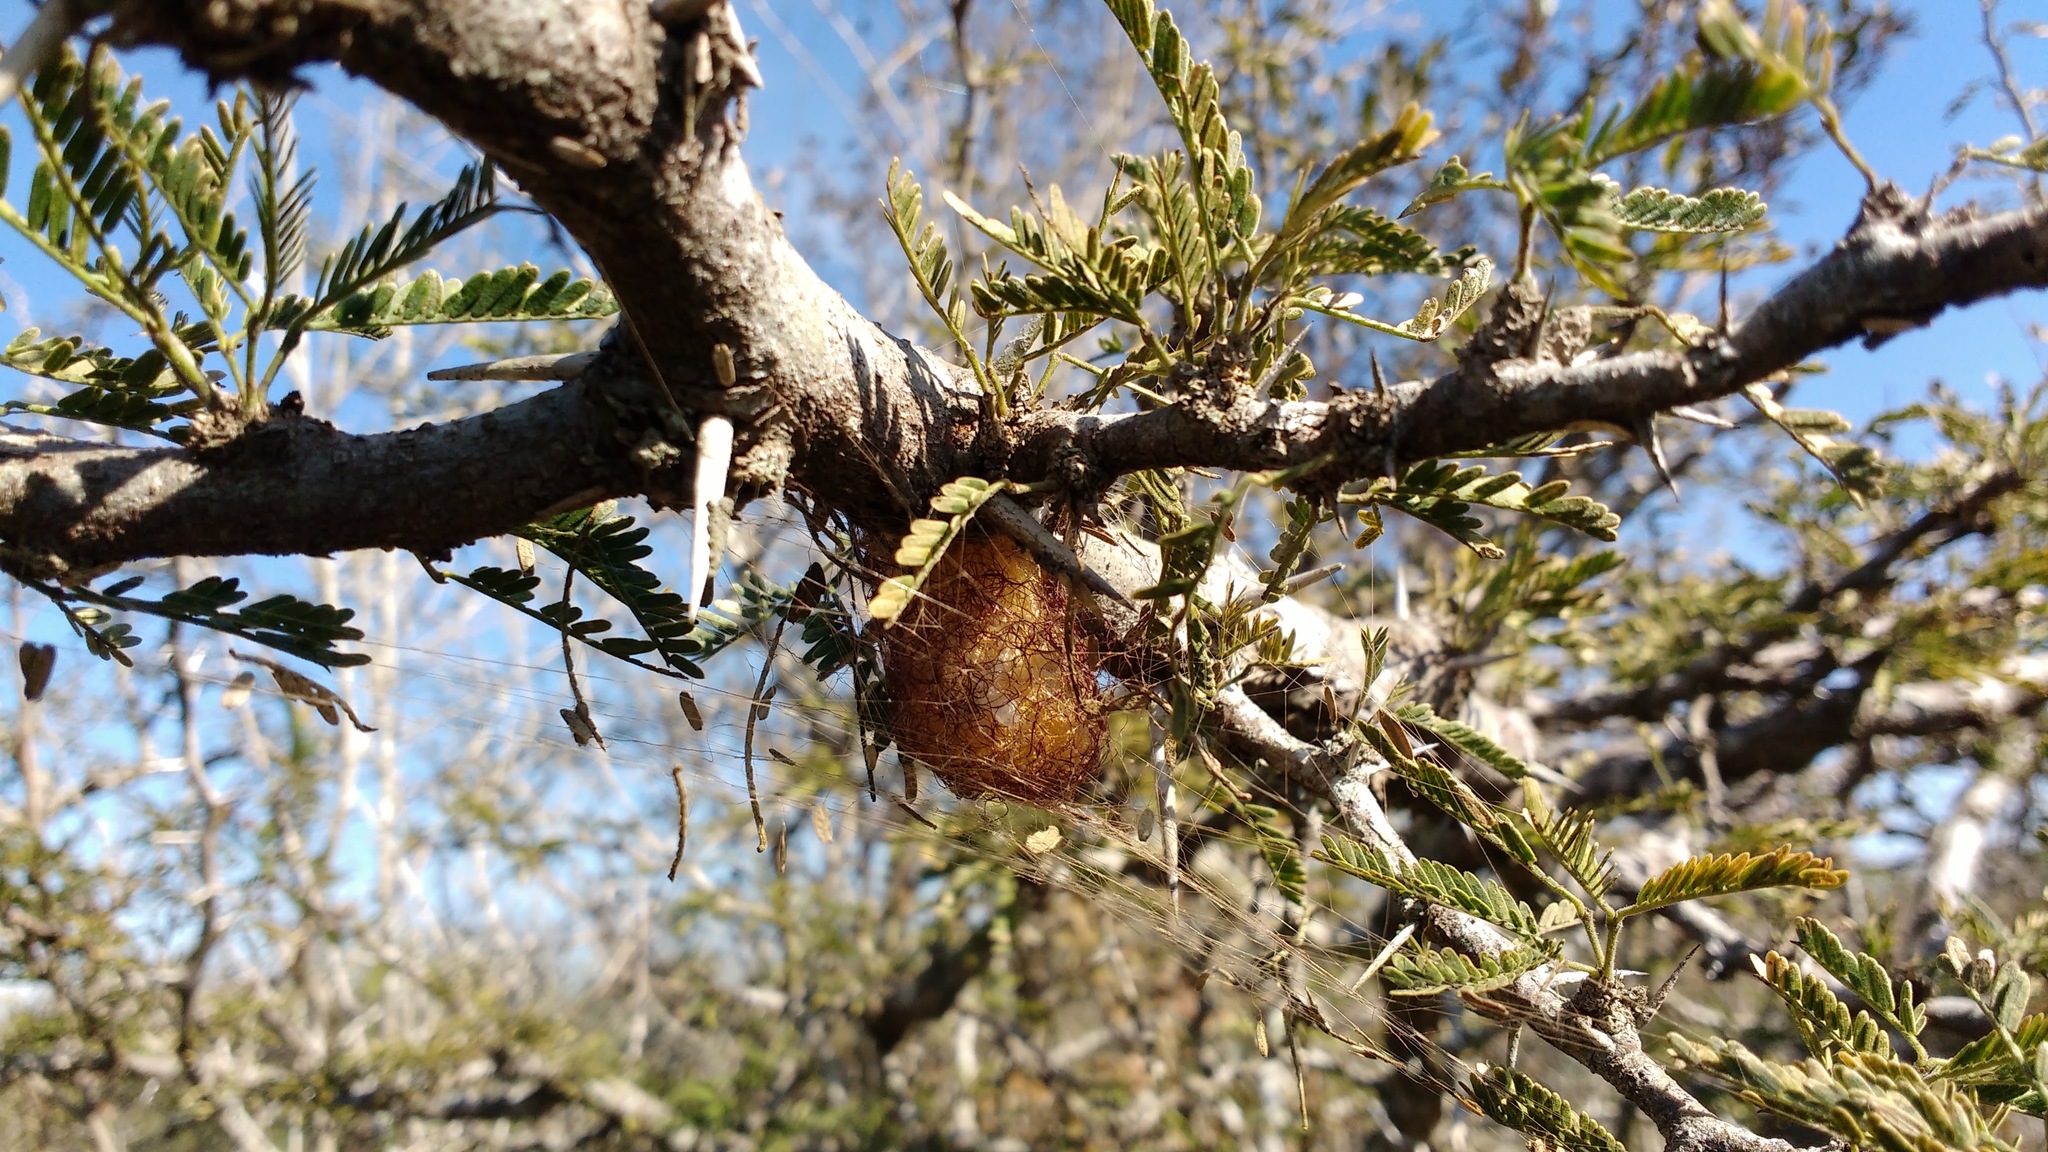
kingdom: Animalia
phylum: Arthropoda
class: Arachnida
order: Araneae
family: Araneidae
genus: Parawixia
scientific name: Parawixia bistriata
